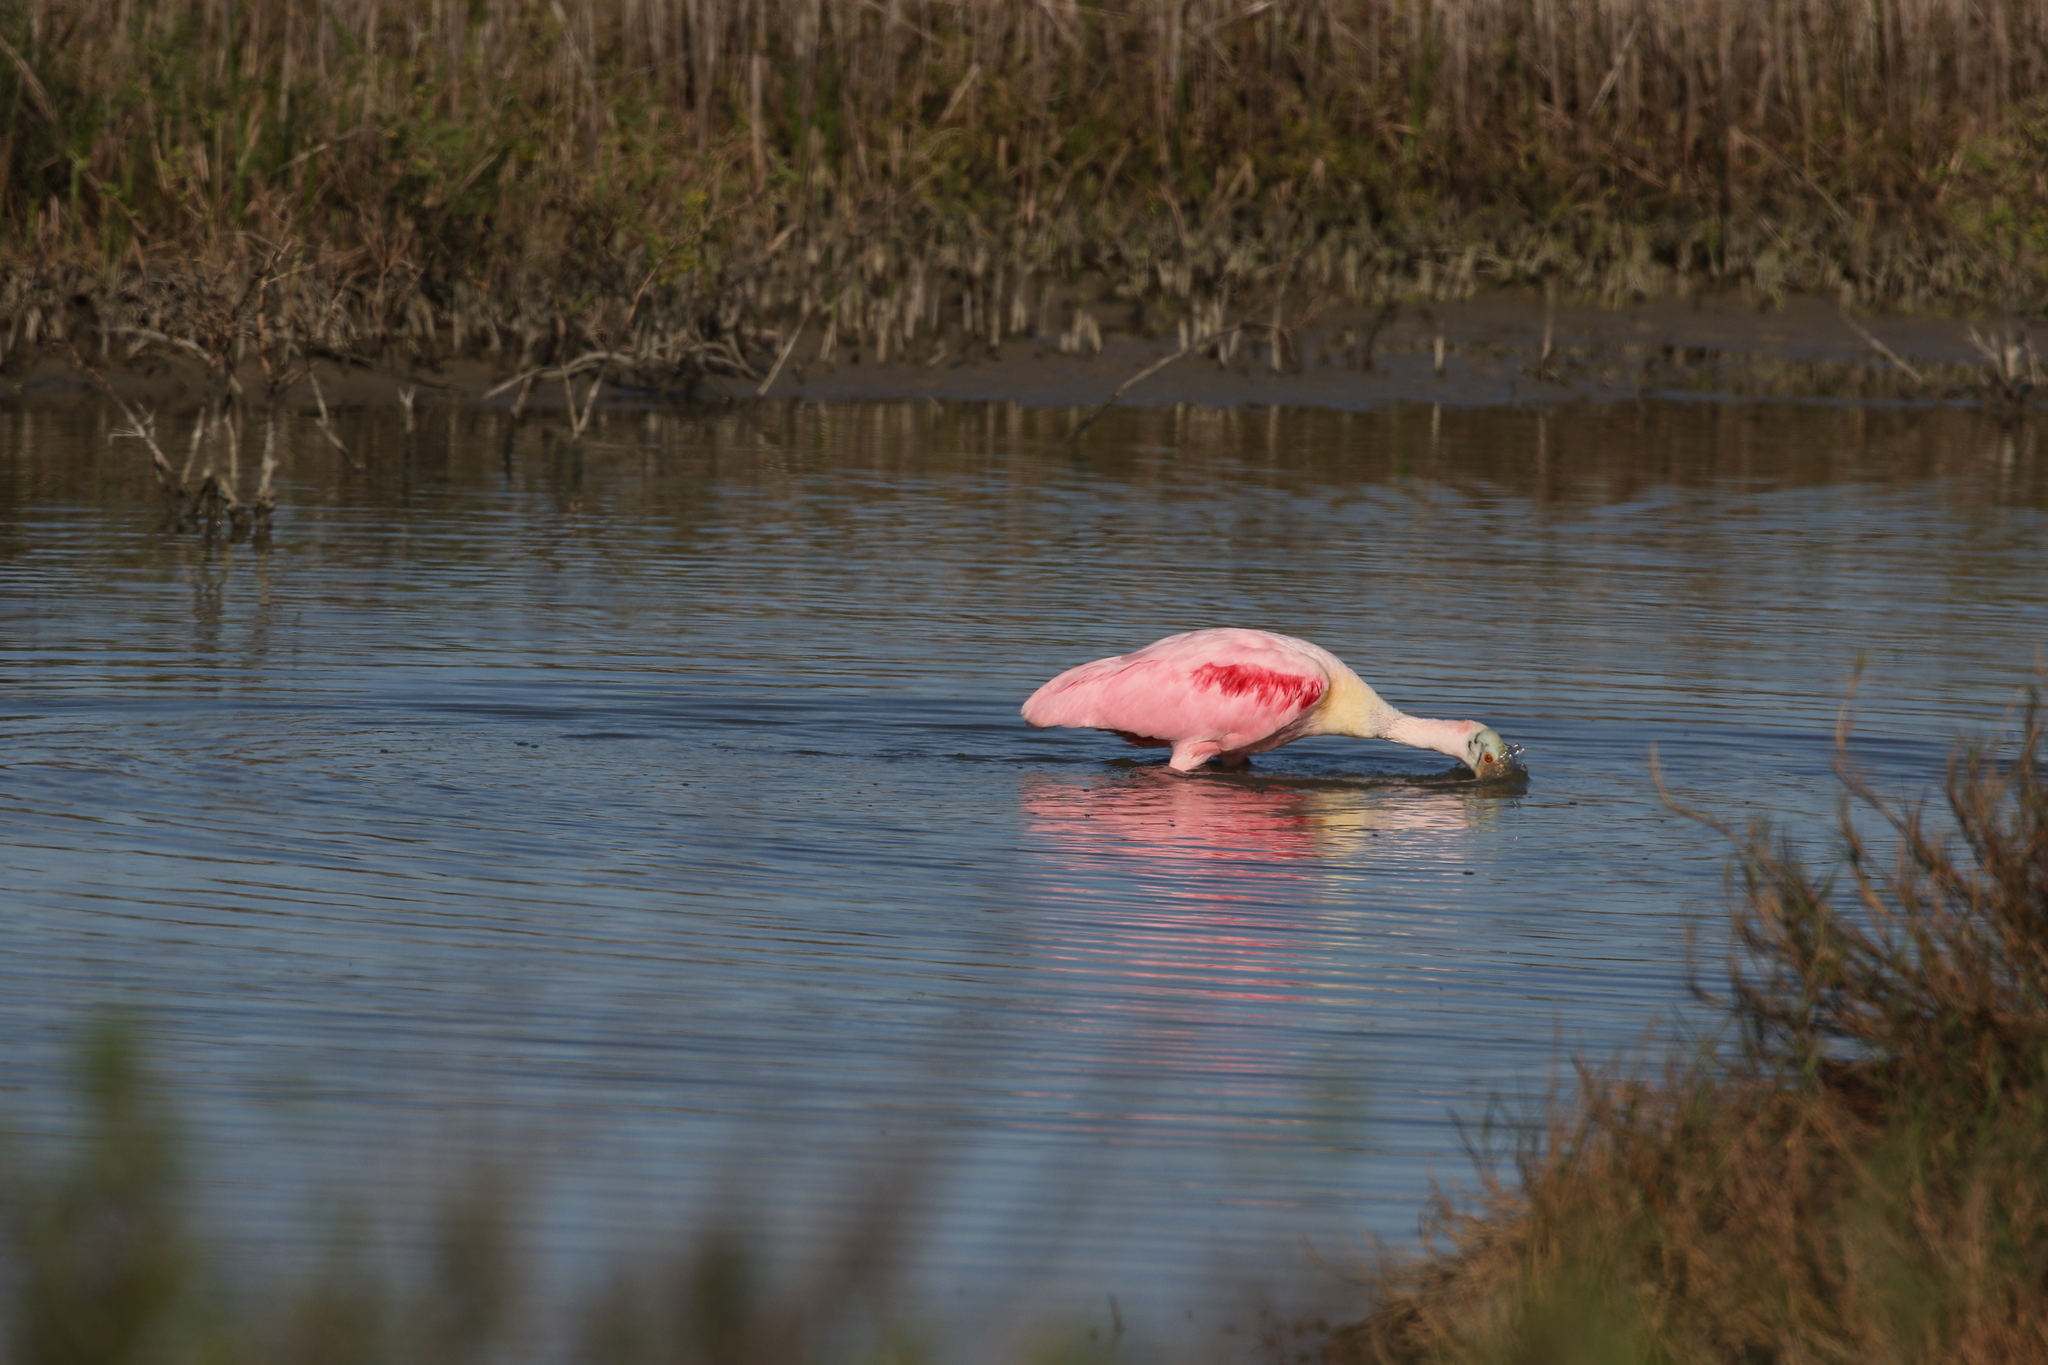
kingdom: Animalia
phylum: Chordata
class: Aves
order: Pelecaniformes
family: Threskiornithidae
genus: Platalea
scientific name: Platalea ajaja
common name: Roseate spoonbill
